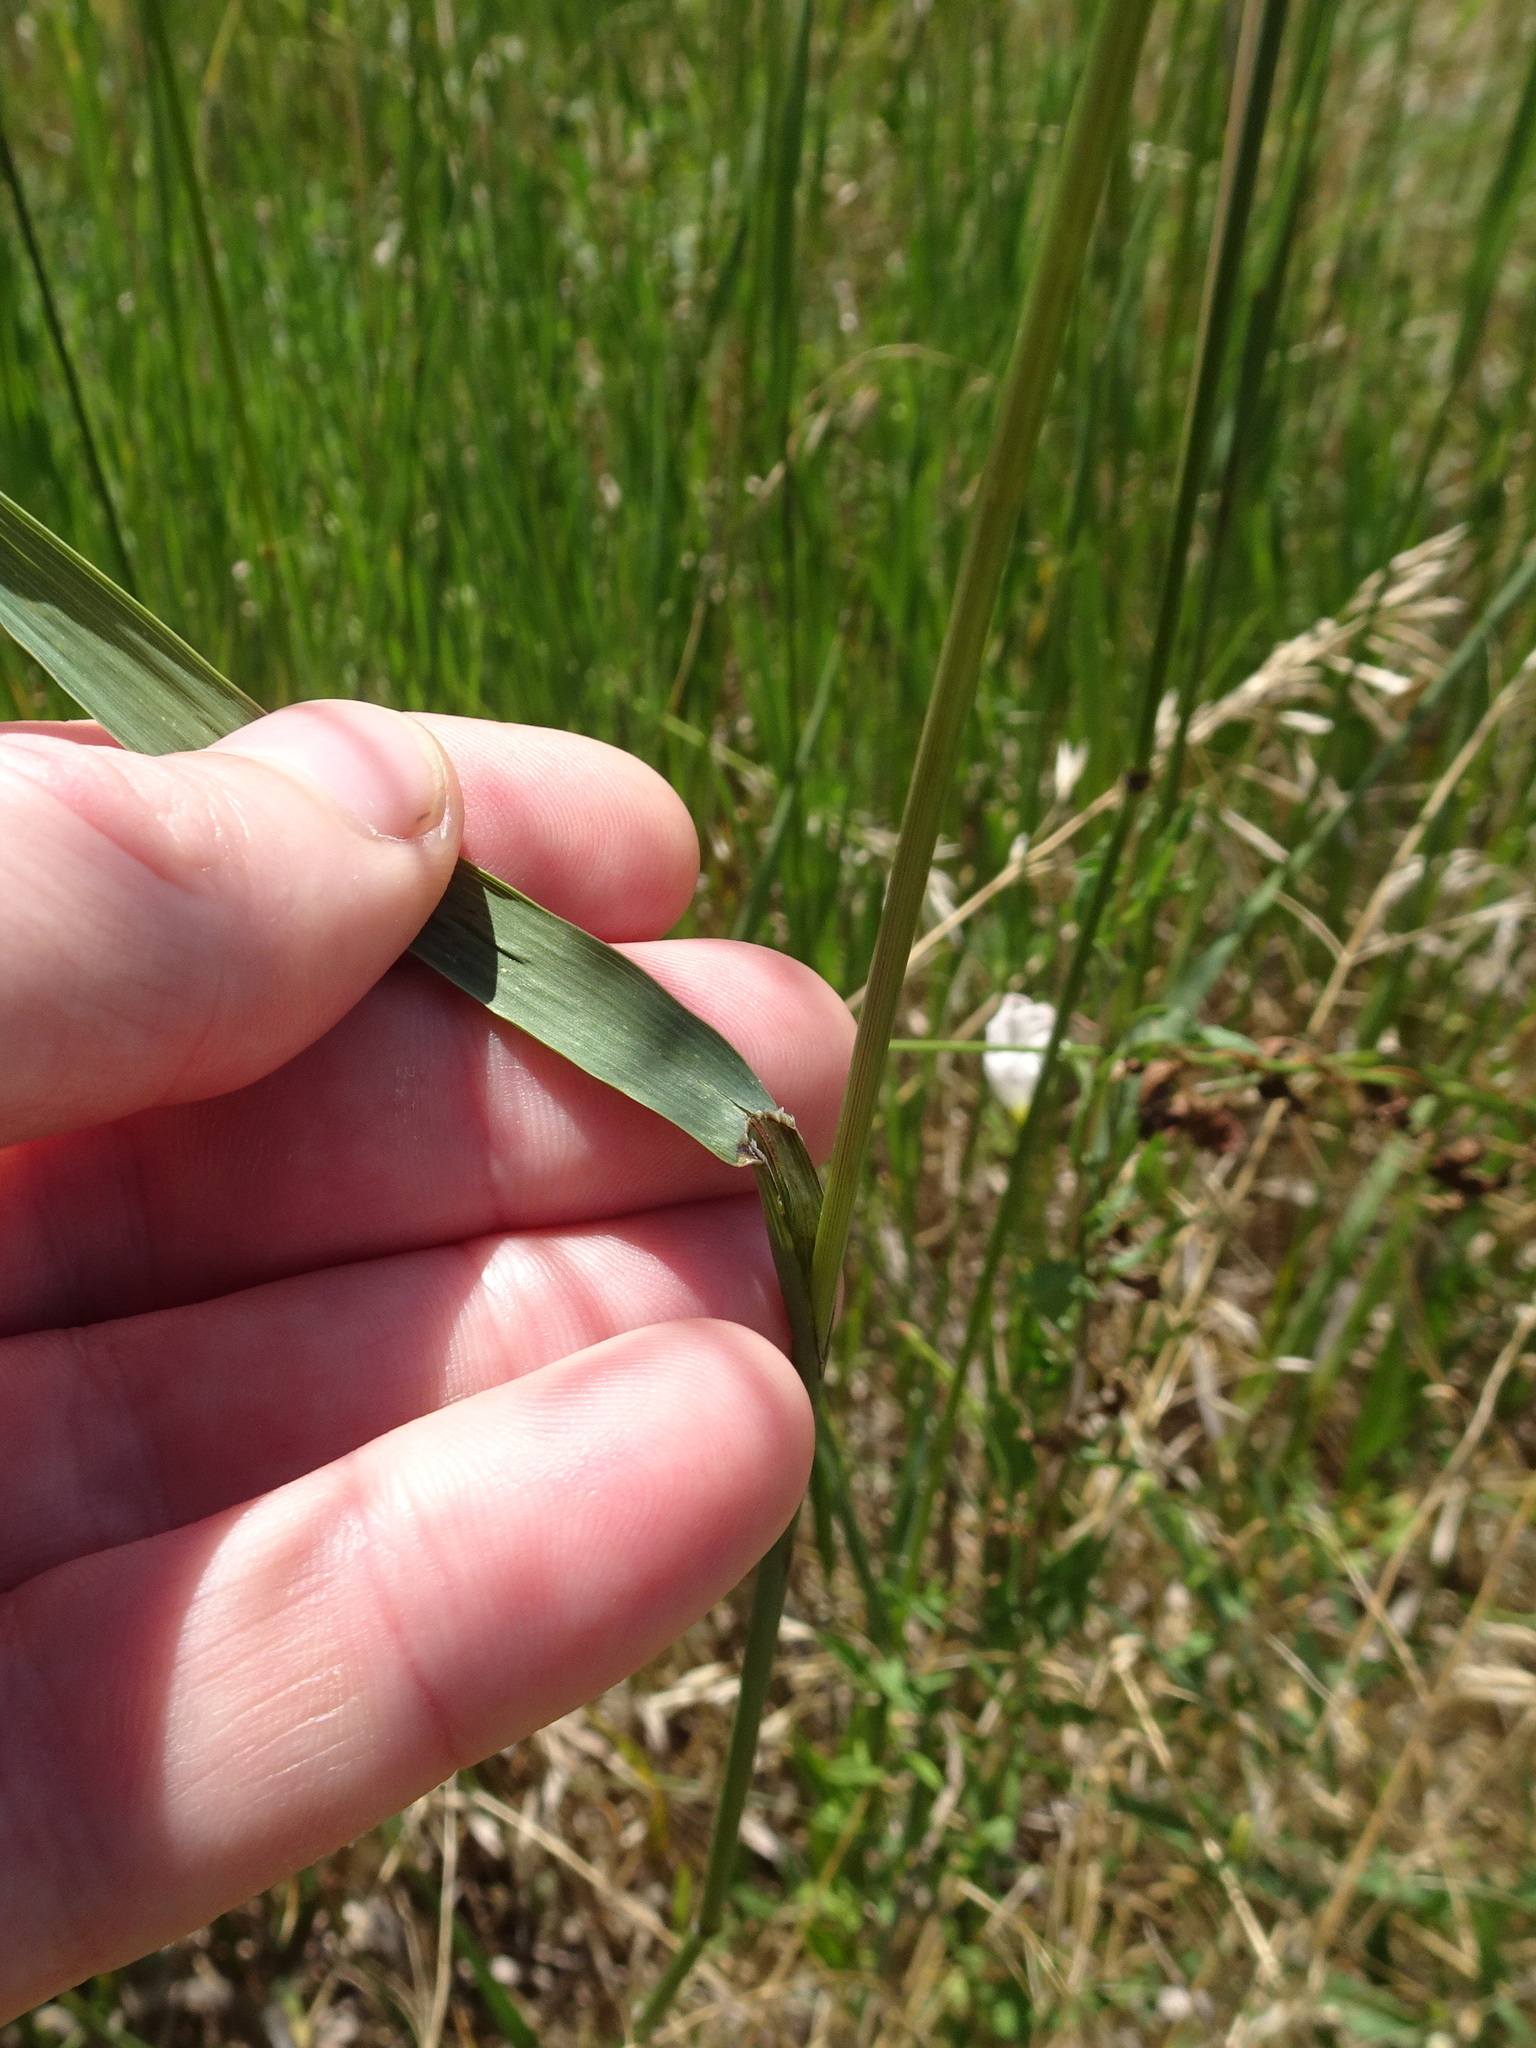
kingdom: Plantae
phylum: Tracheophyta
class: Liliopsida
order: Poales
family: Poaceae
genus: Bromus
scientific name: Bromus inermis
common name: Smooth brome
